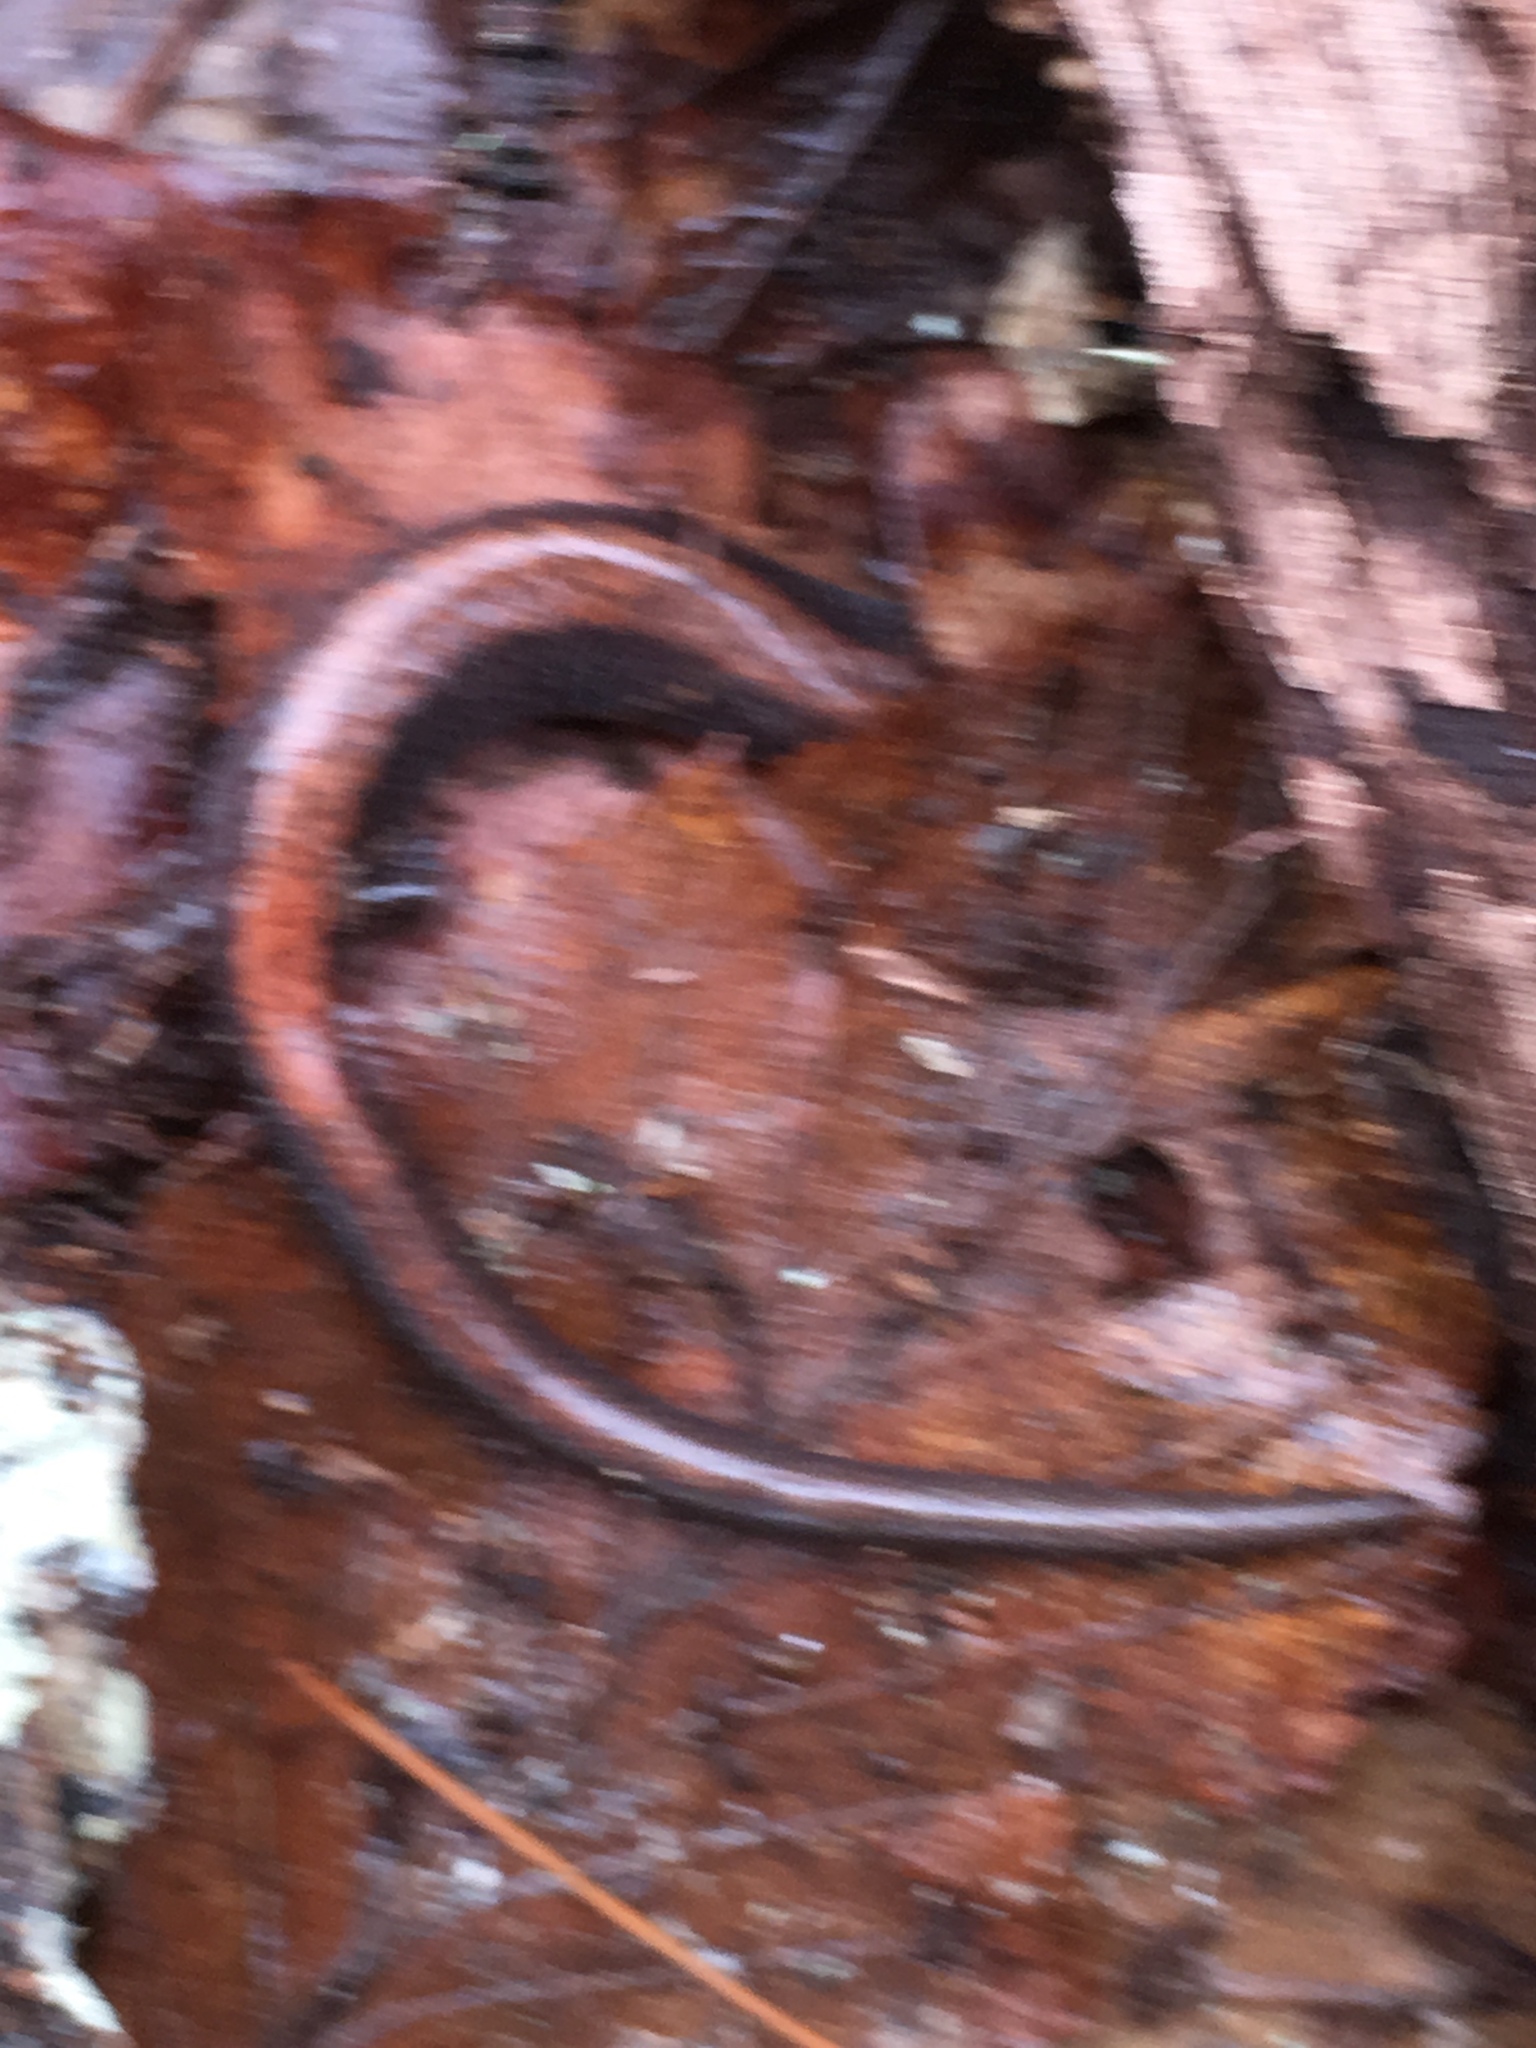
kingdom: Animalia
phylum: Chordata
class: Amphibia
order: Caudata
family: Plethodontidae
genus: Plethodon
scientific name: Plethodon cinereus
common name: Redback salamander
